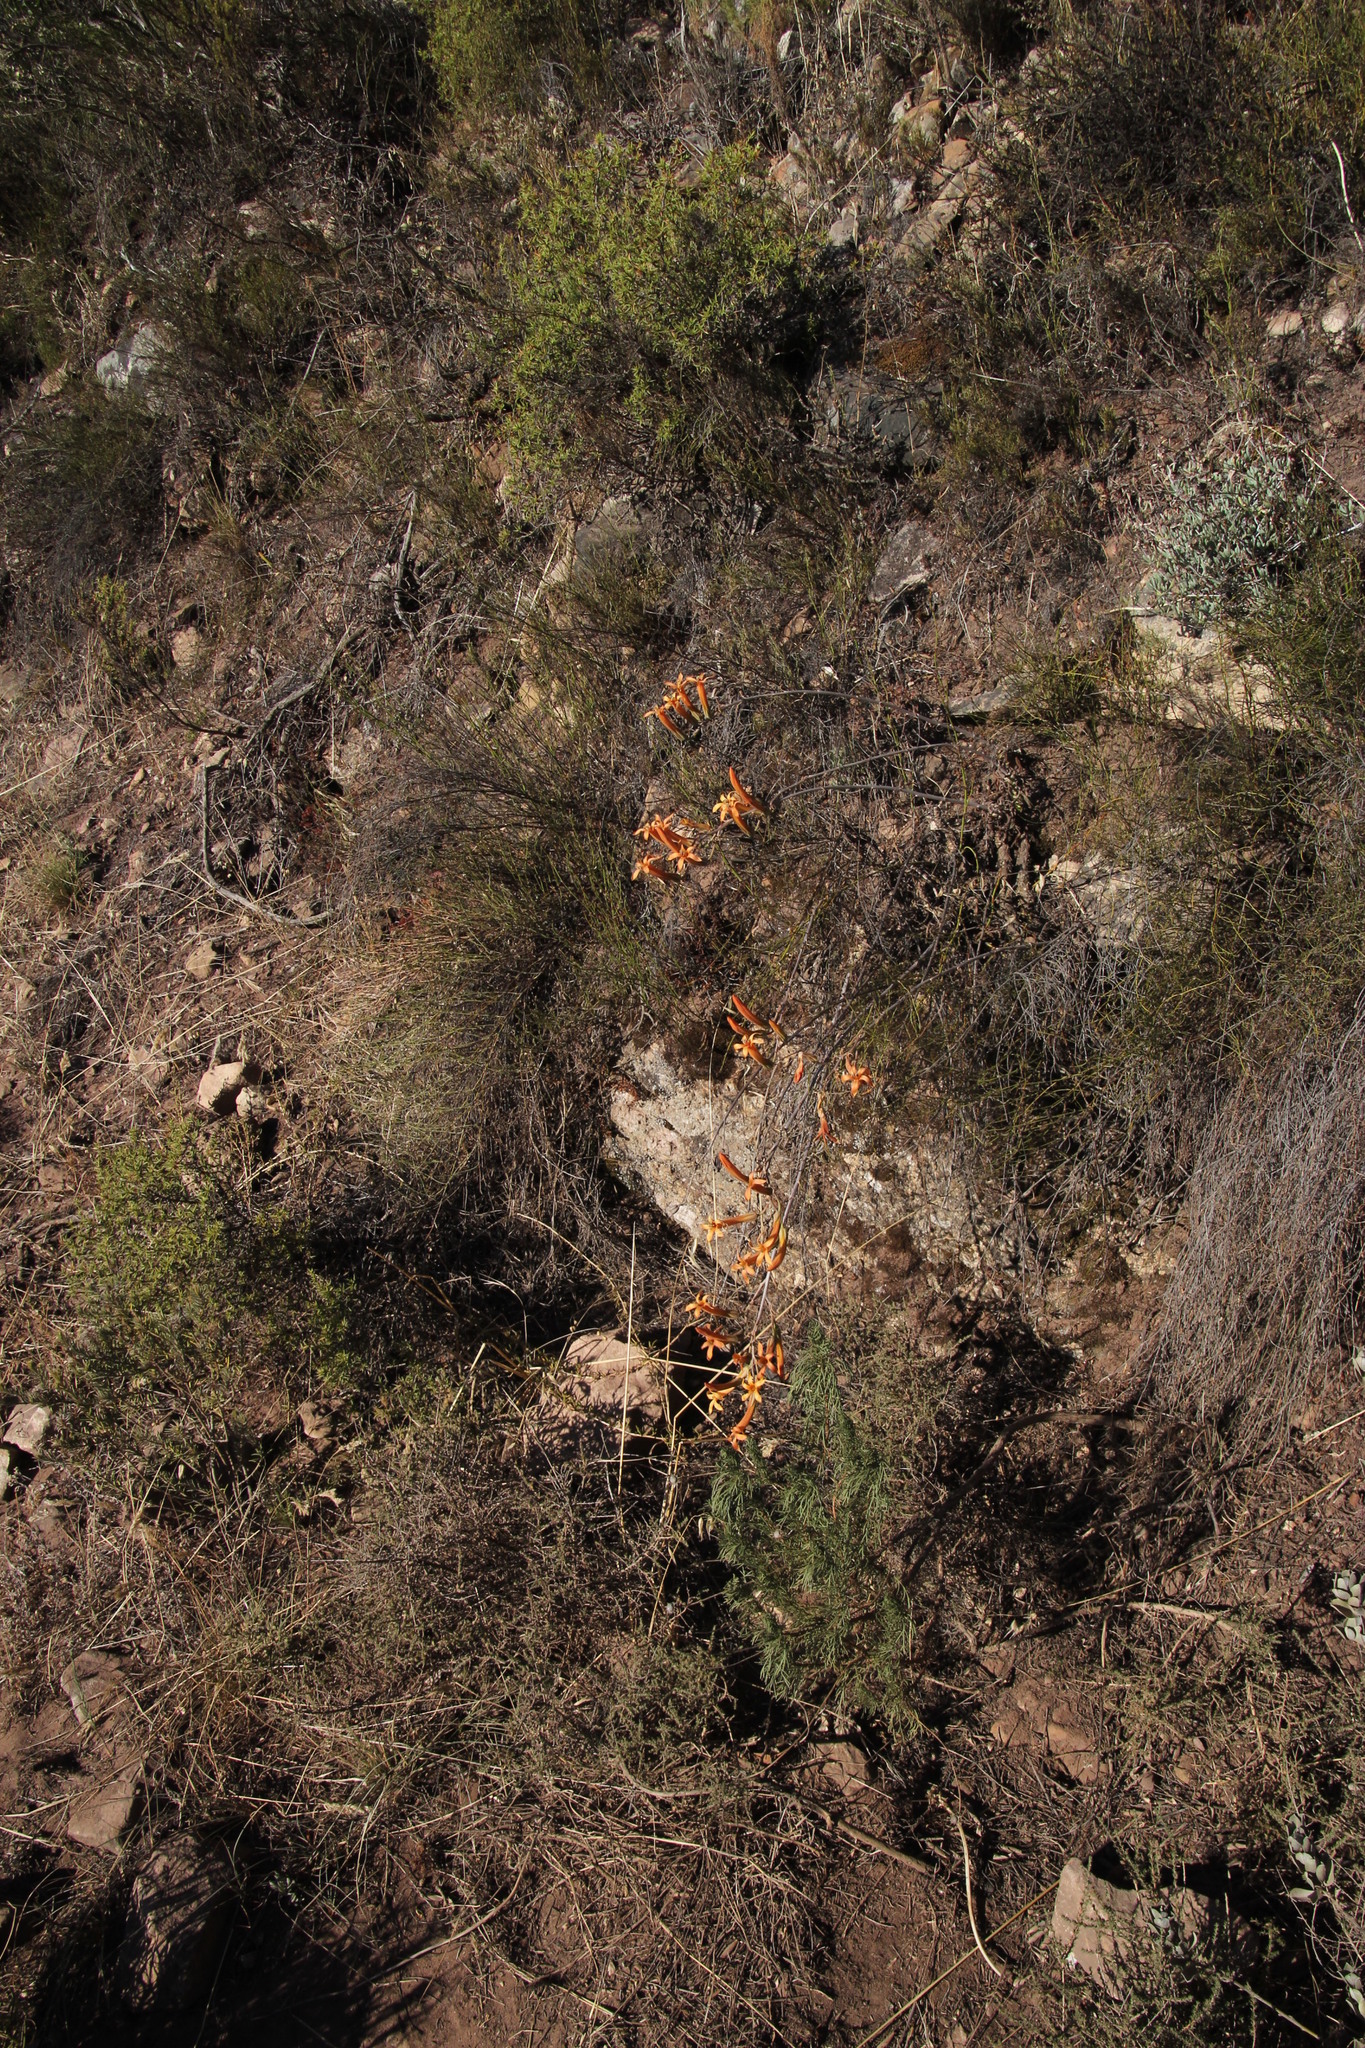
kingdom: Plantae
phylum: Tracheophyta
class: Magnoliopsida
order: Saxifragales
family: Crassulaceae
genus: Tylecodon
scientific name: Tylecodon grandiflorus
